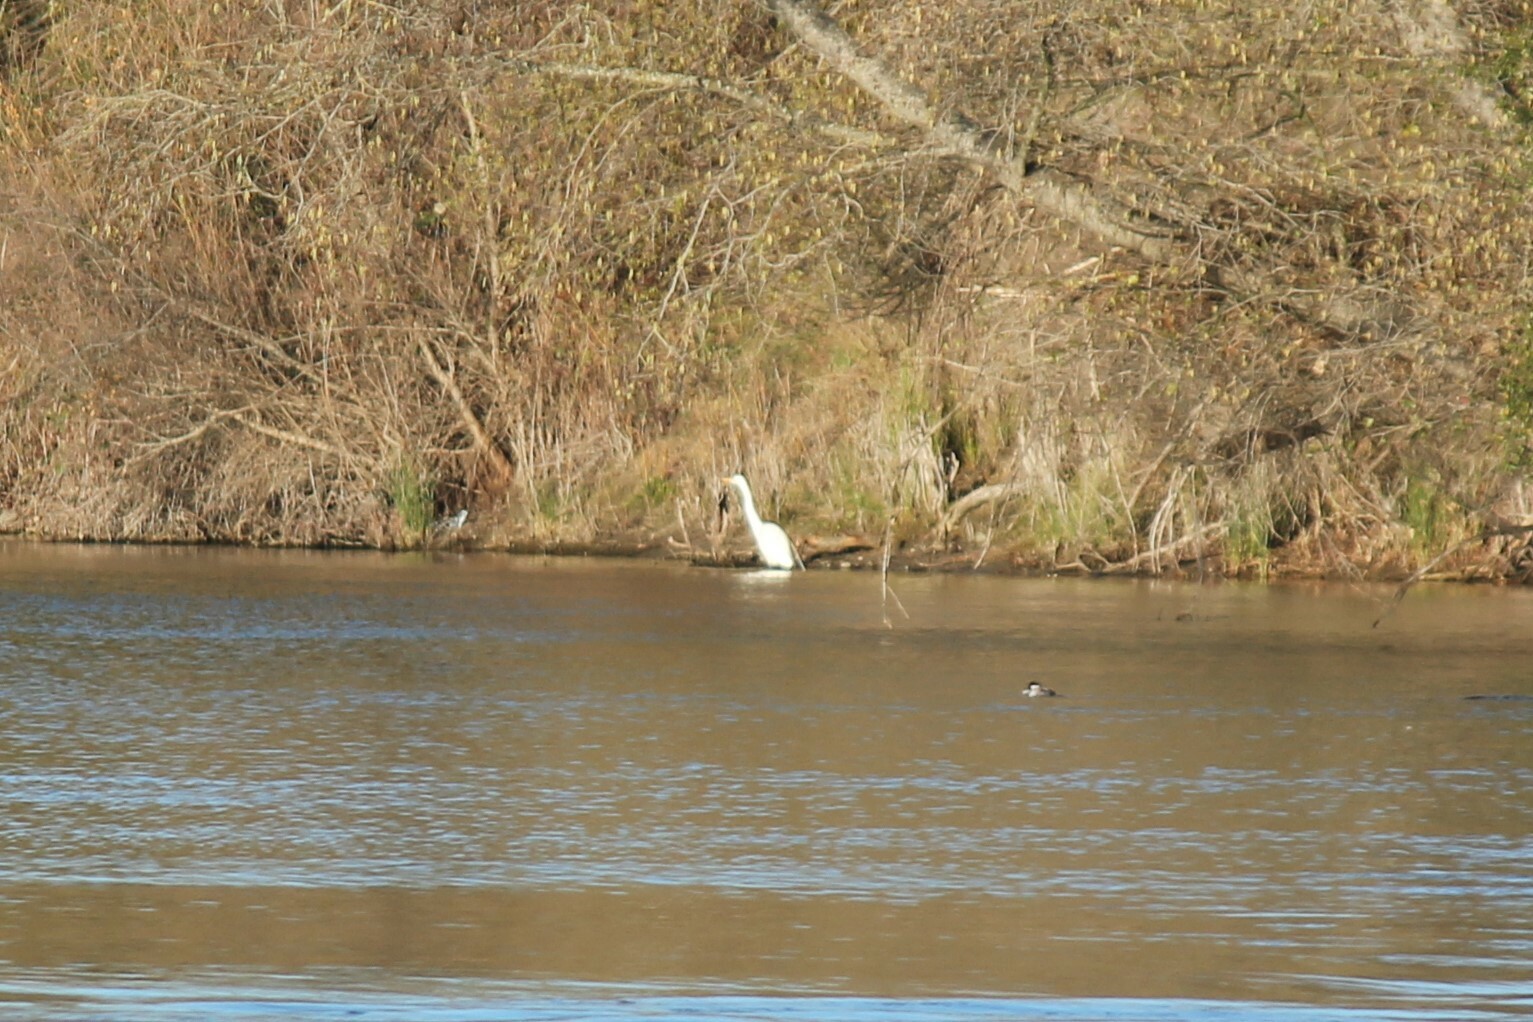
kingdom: Animalia
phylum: Chordata
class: Aves
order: Pelecaniformes
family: Ardeidae
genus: Ardea
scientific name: Ardea alba
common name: Great egret
